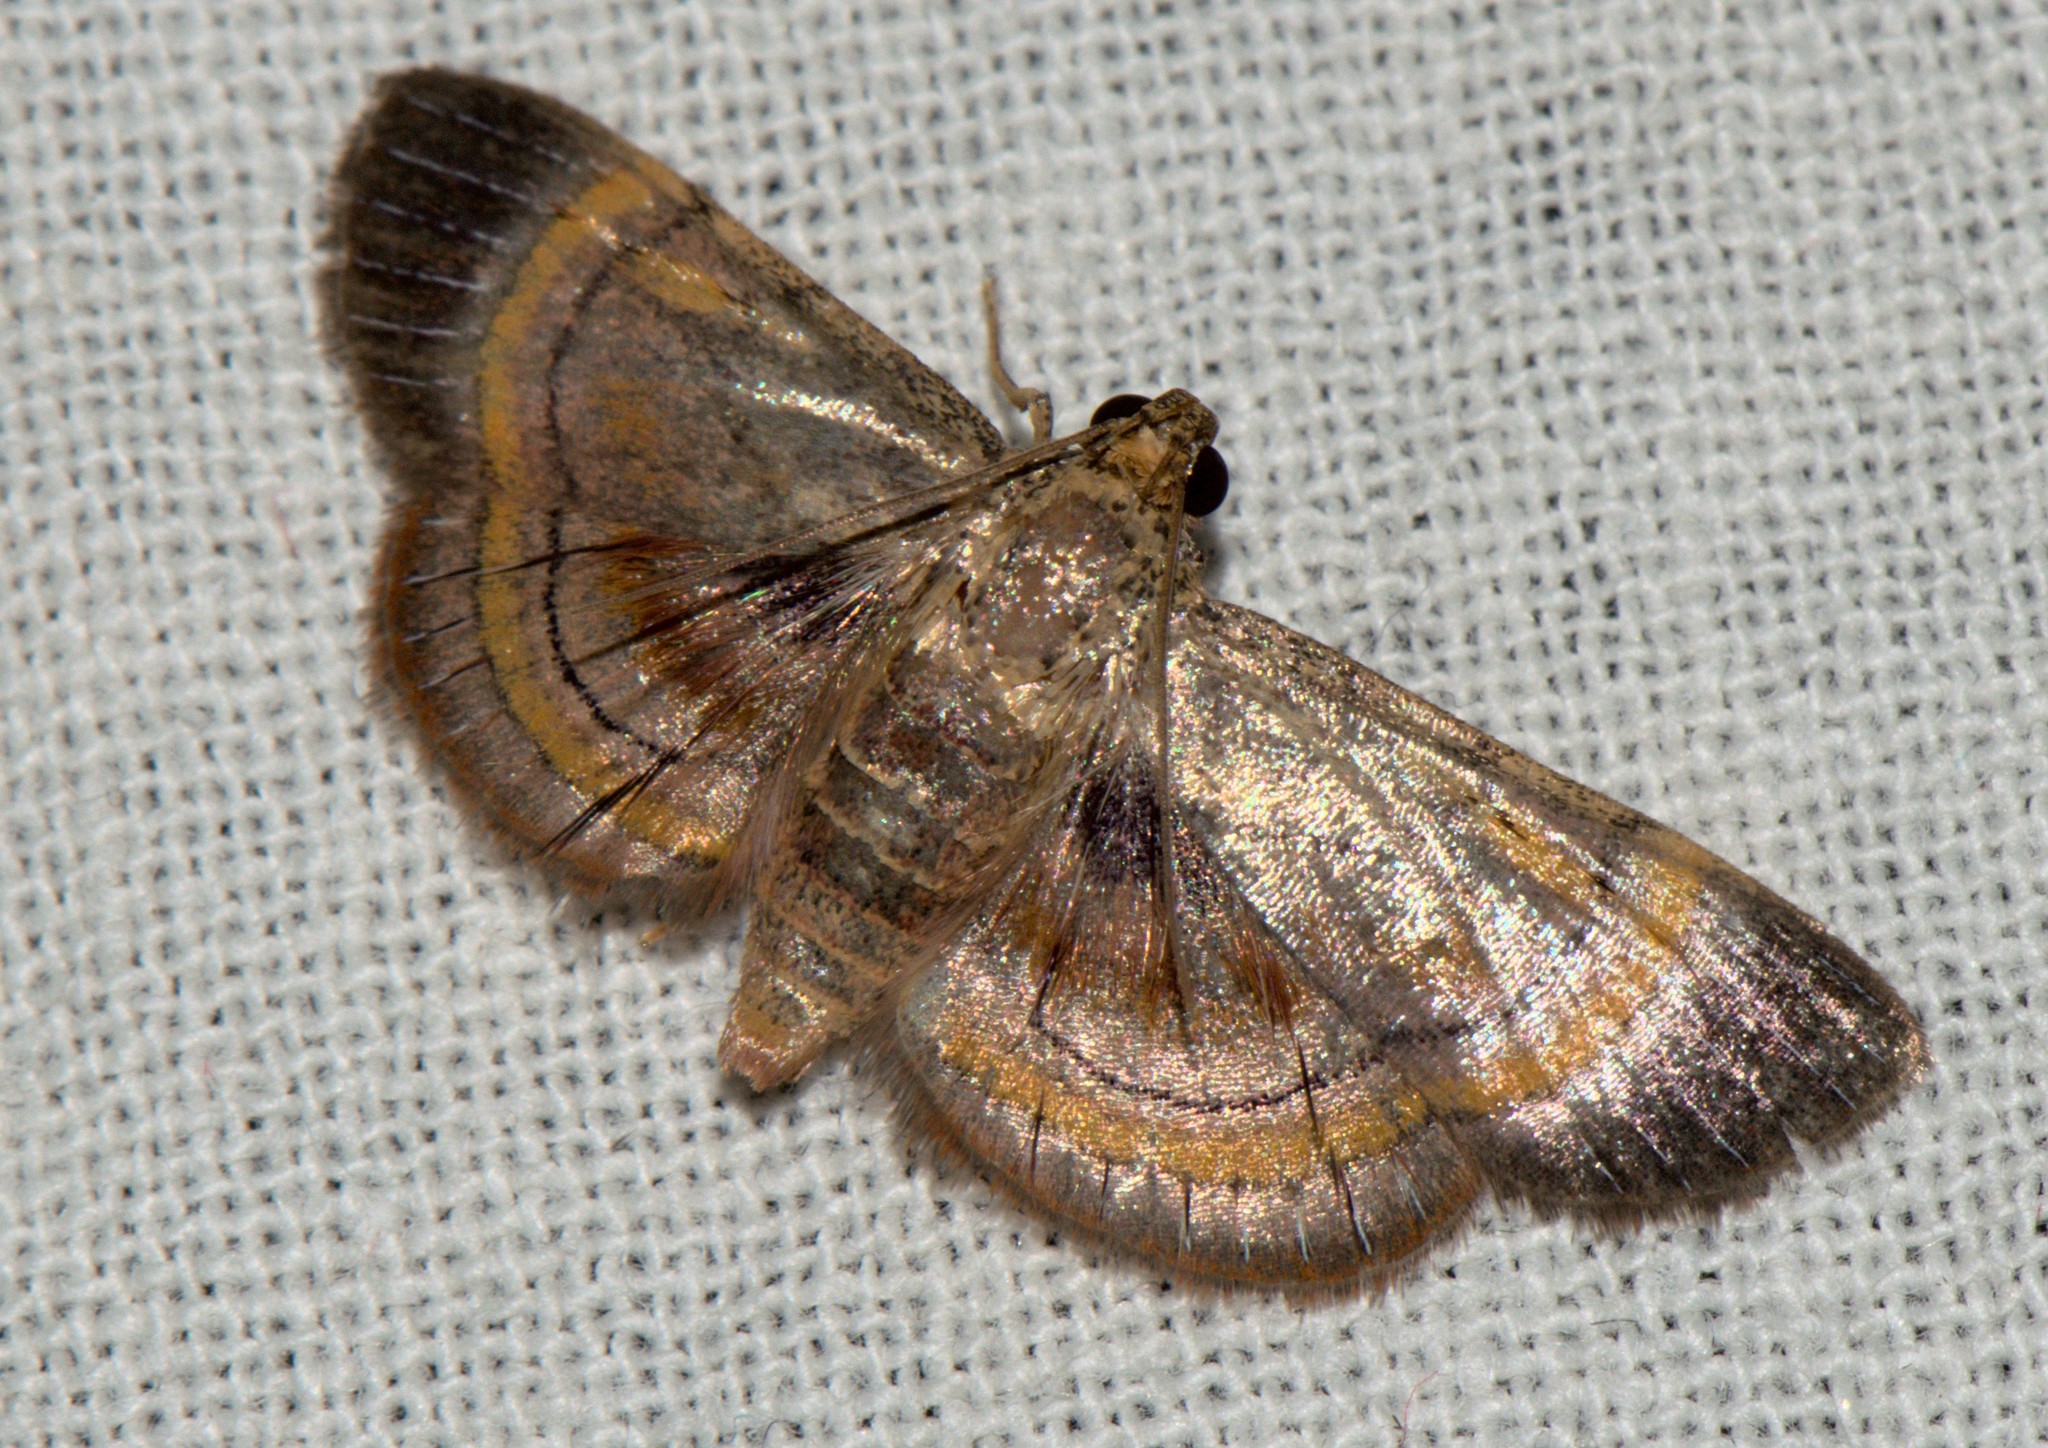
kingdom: Animalia
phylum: Arthropoda
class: Insecta
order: Lepidoptera
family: Pyralidae
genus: Lista
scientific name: Lista ficki
